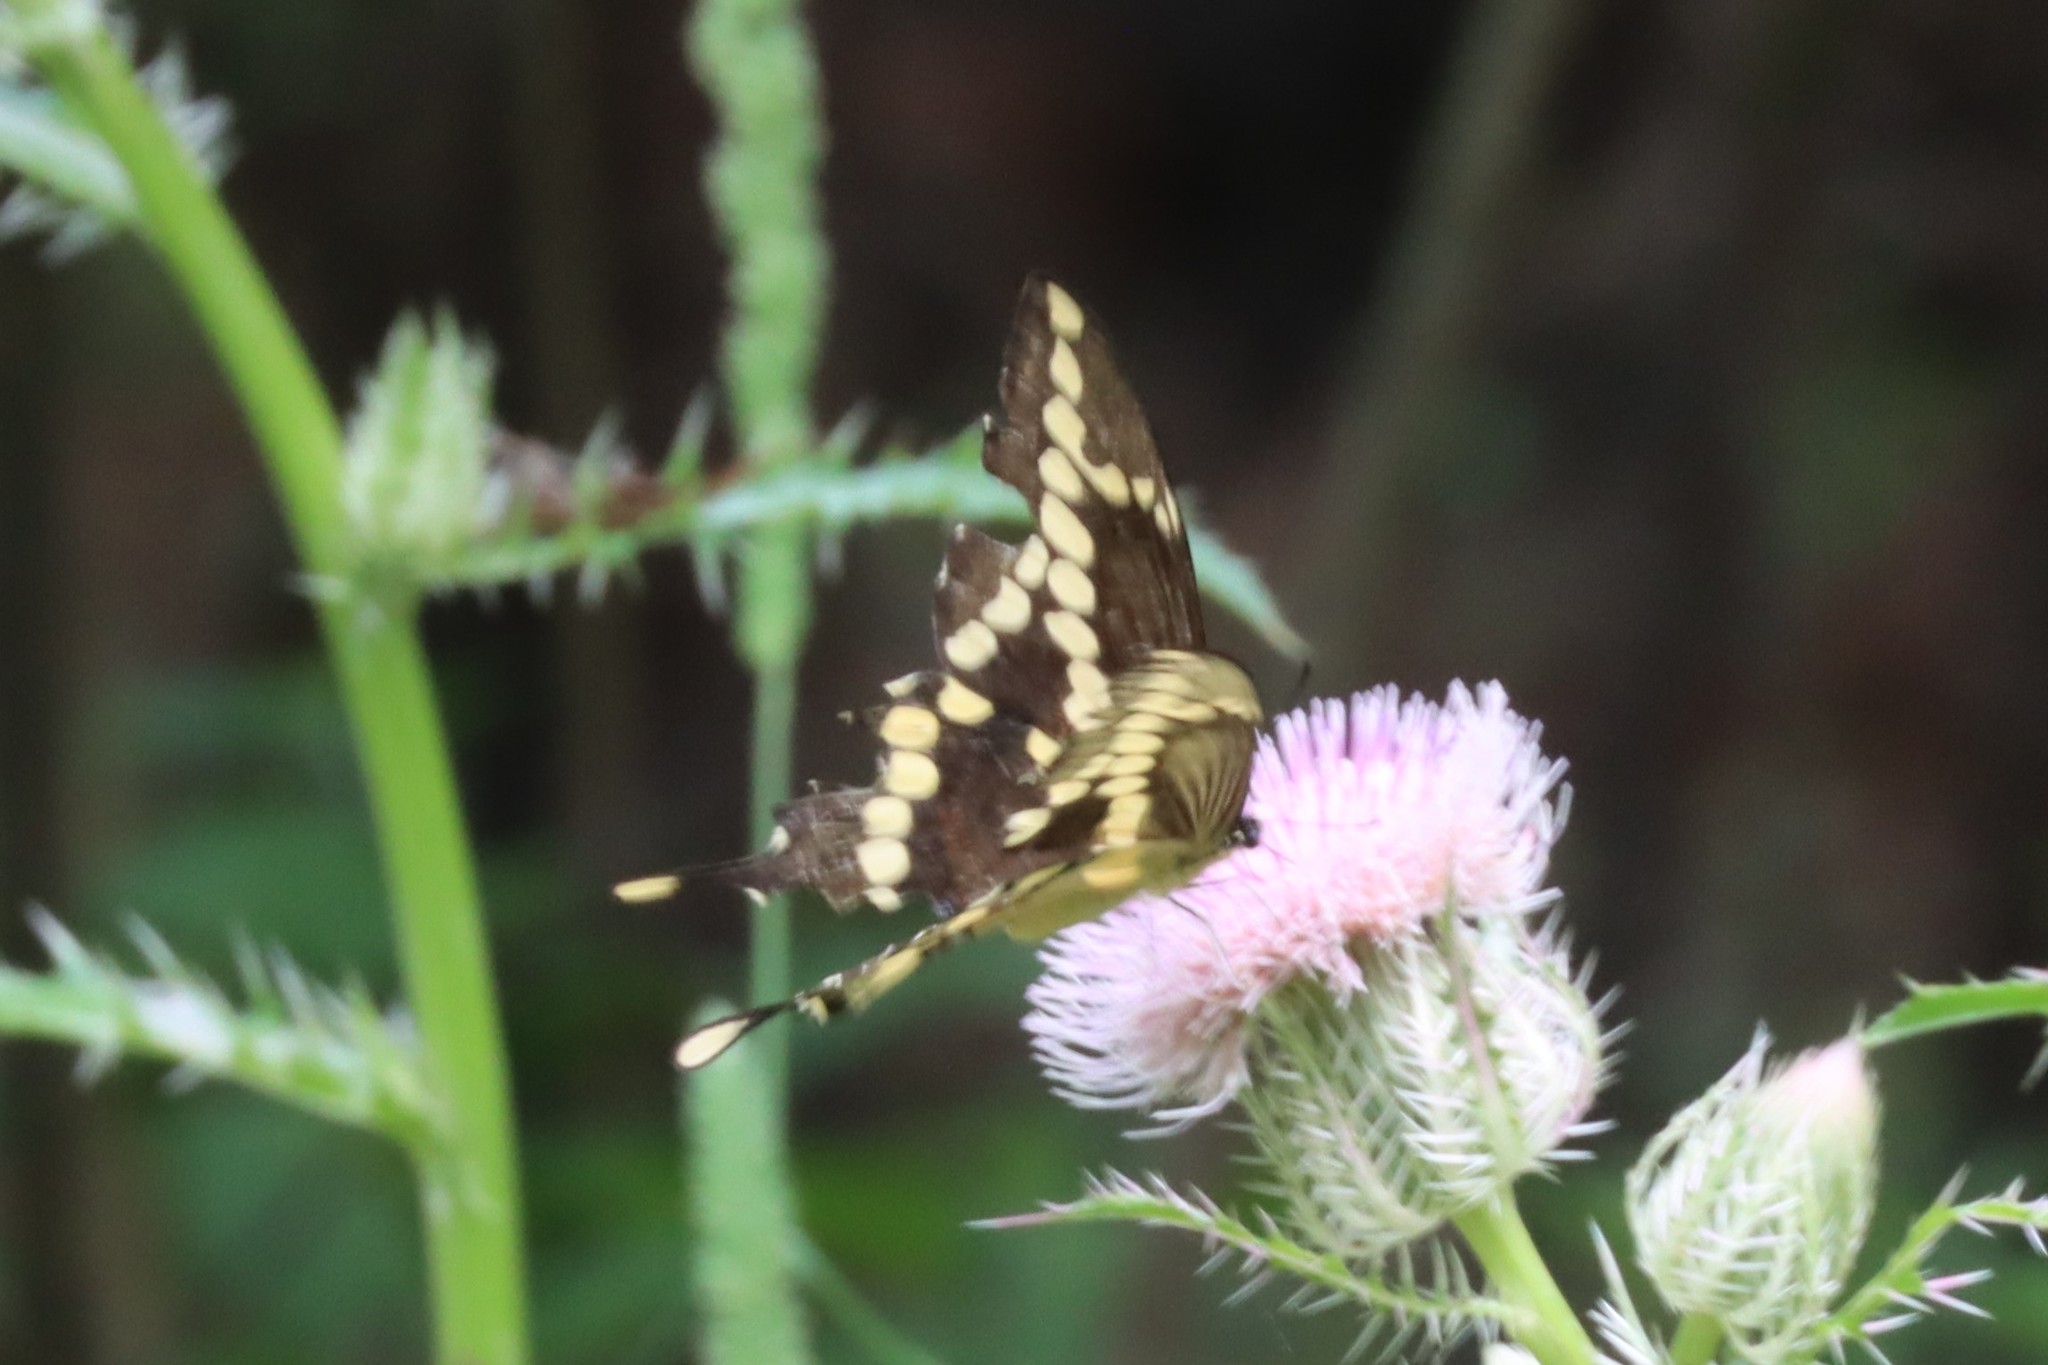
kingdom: Animalia
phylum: Arthropoda
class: Insecta
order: Lepidoptera
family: Papilionidae
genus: Papilio
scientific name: Papilio cresphontes
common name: Giant swallowtail
